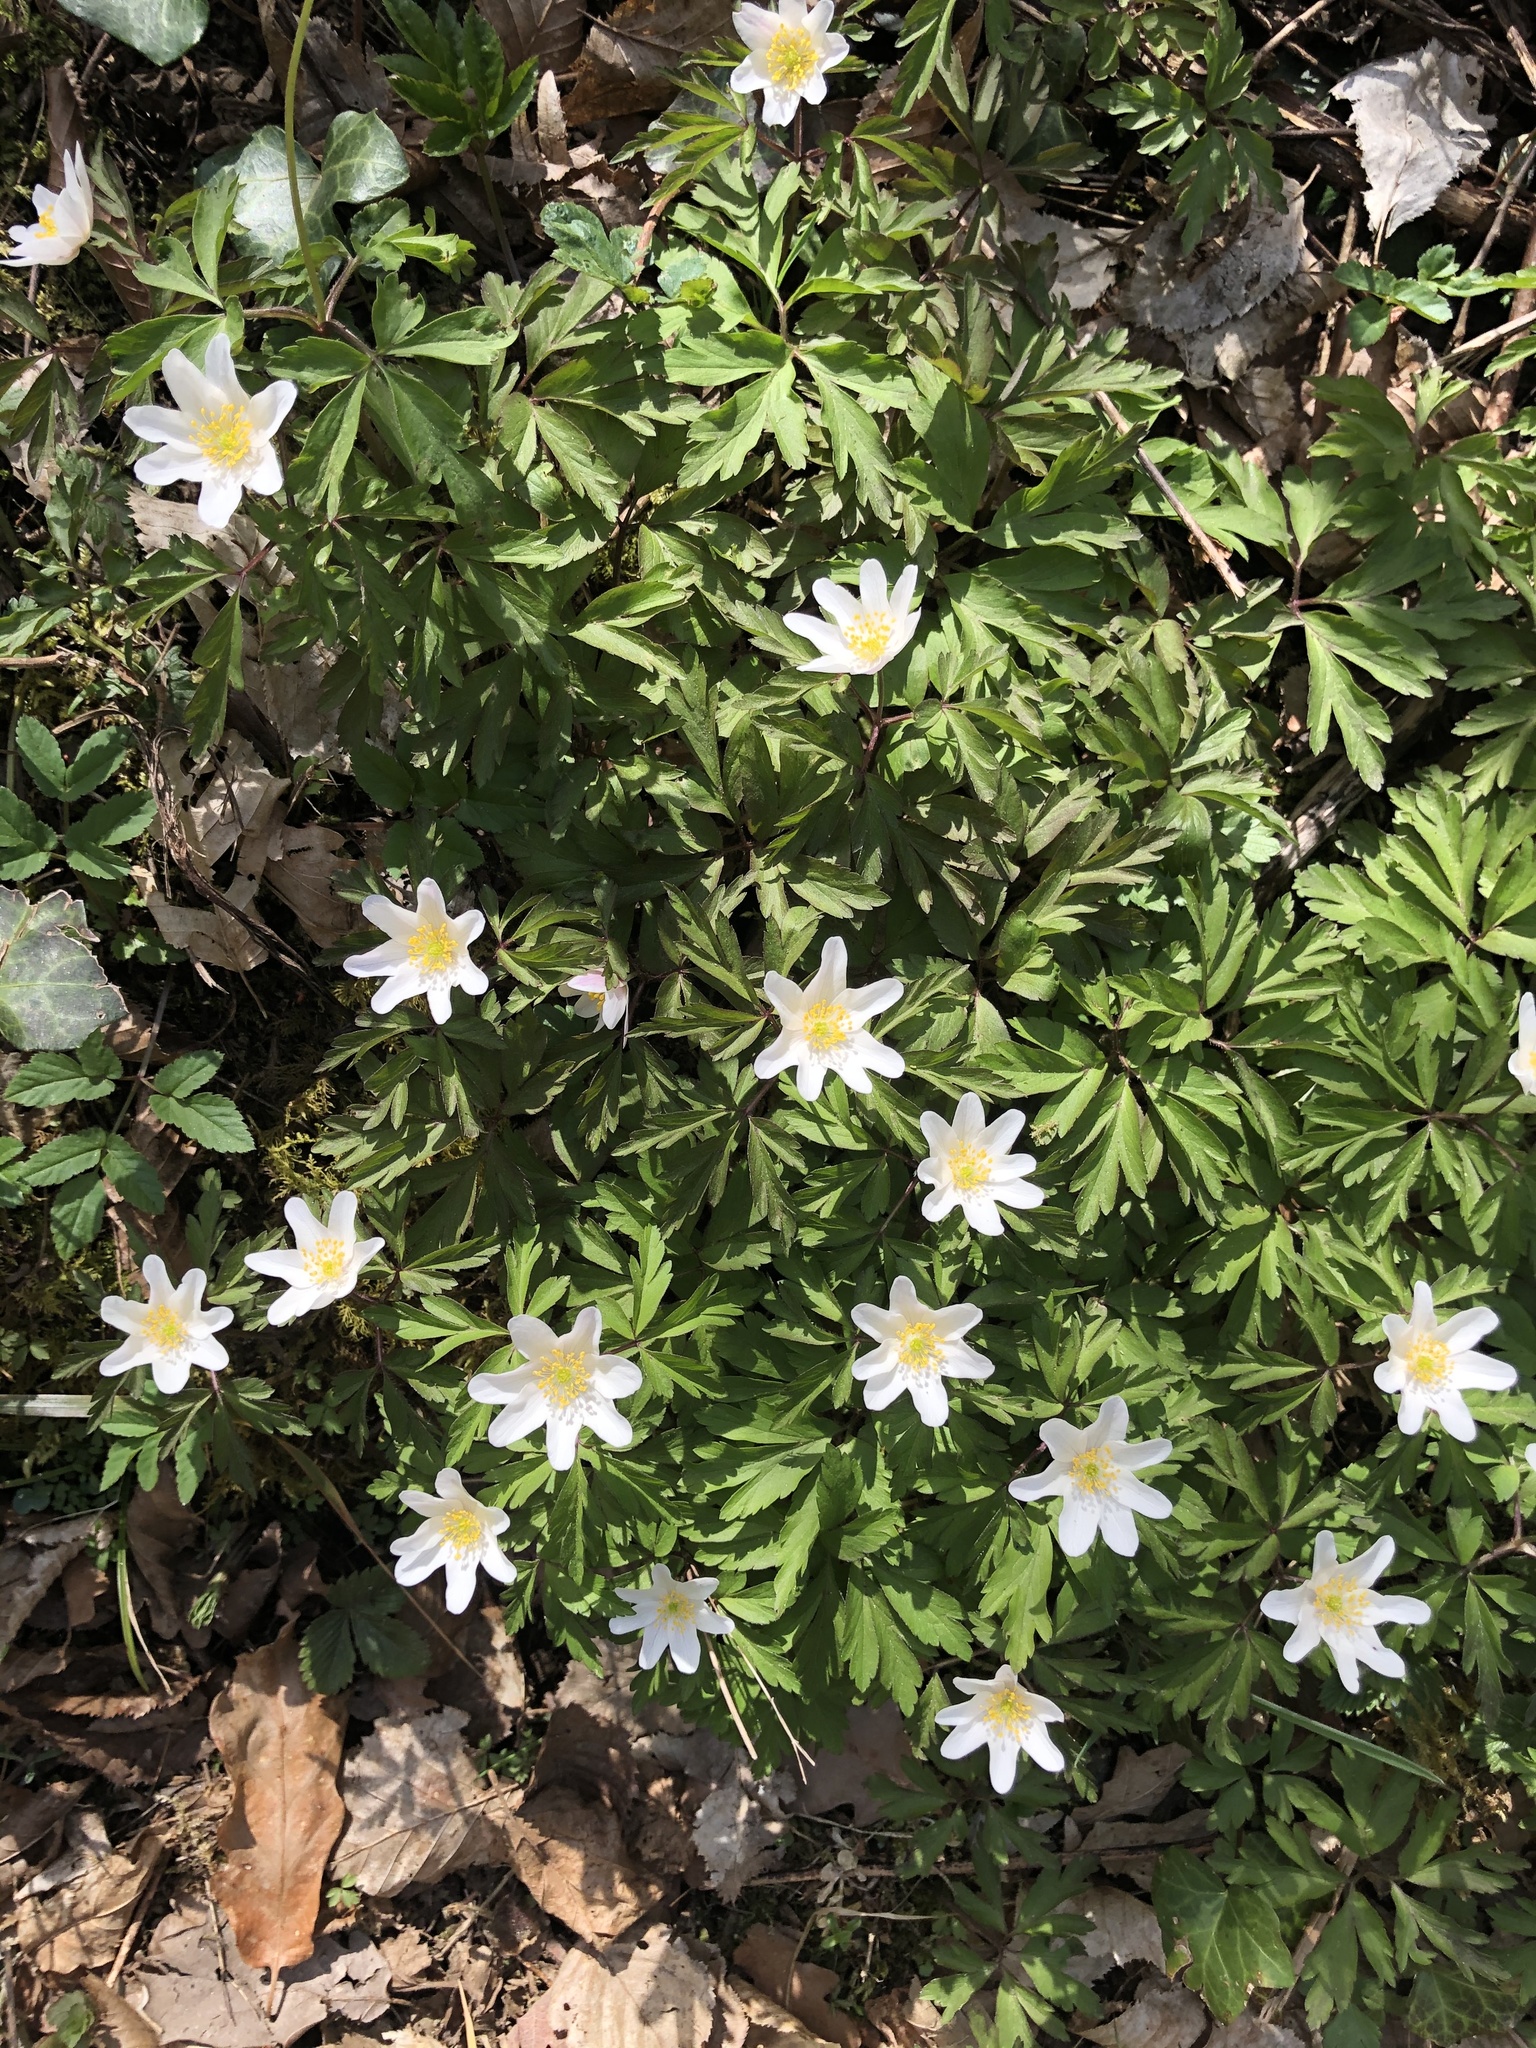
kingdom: Plantae
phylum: Tracheophyta
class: Magnoliopsida
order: Ranunculales
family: Ranunculaceae
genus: Anemone
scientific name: Anemone nemorosa
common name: Wood anemone
